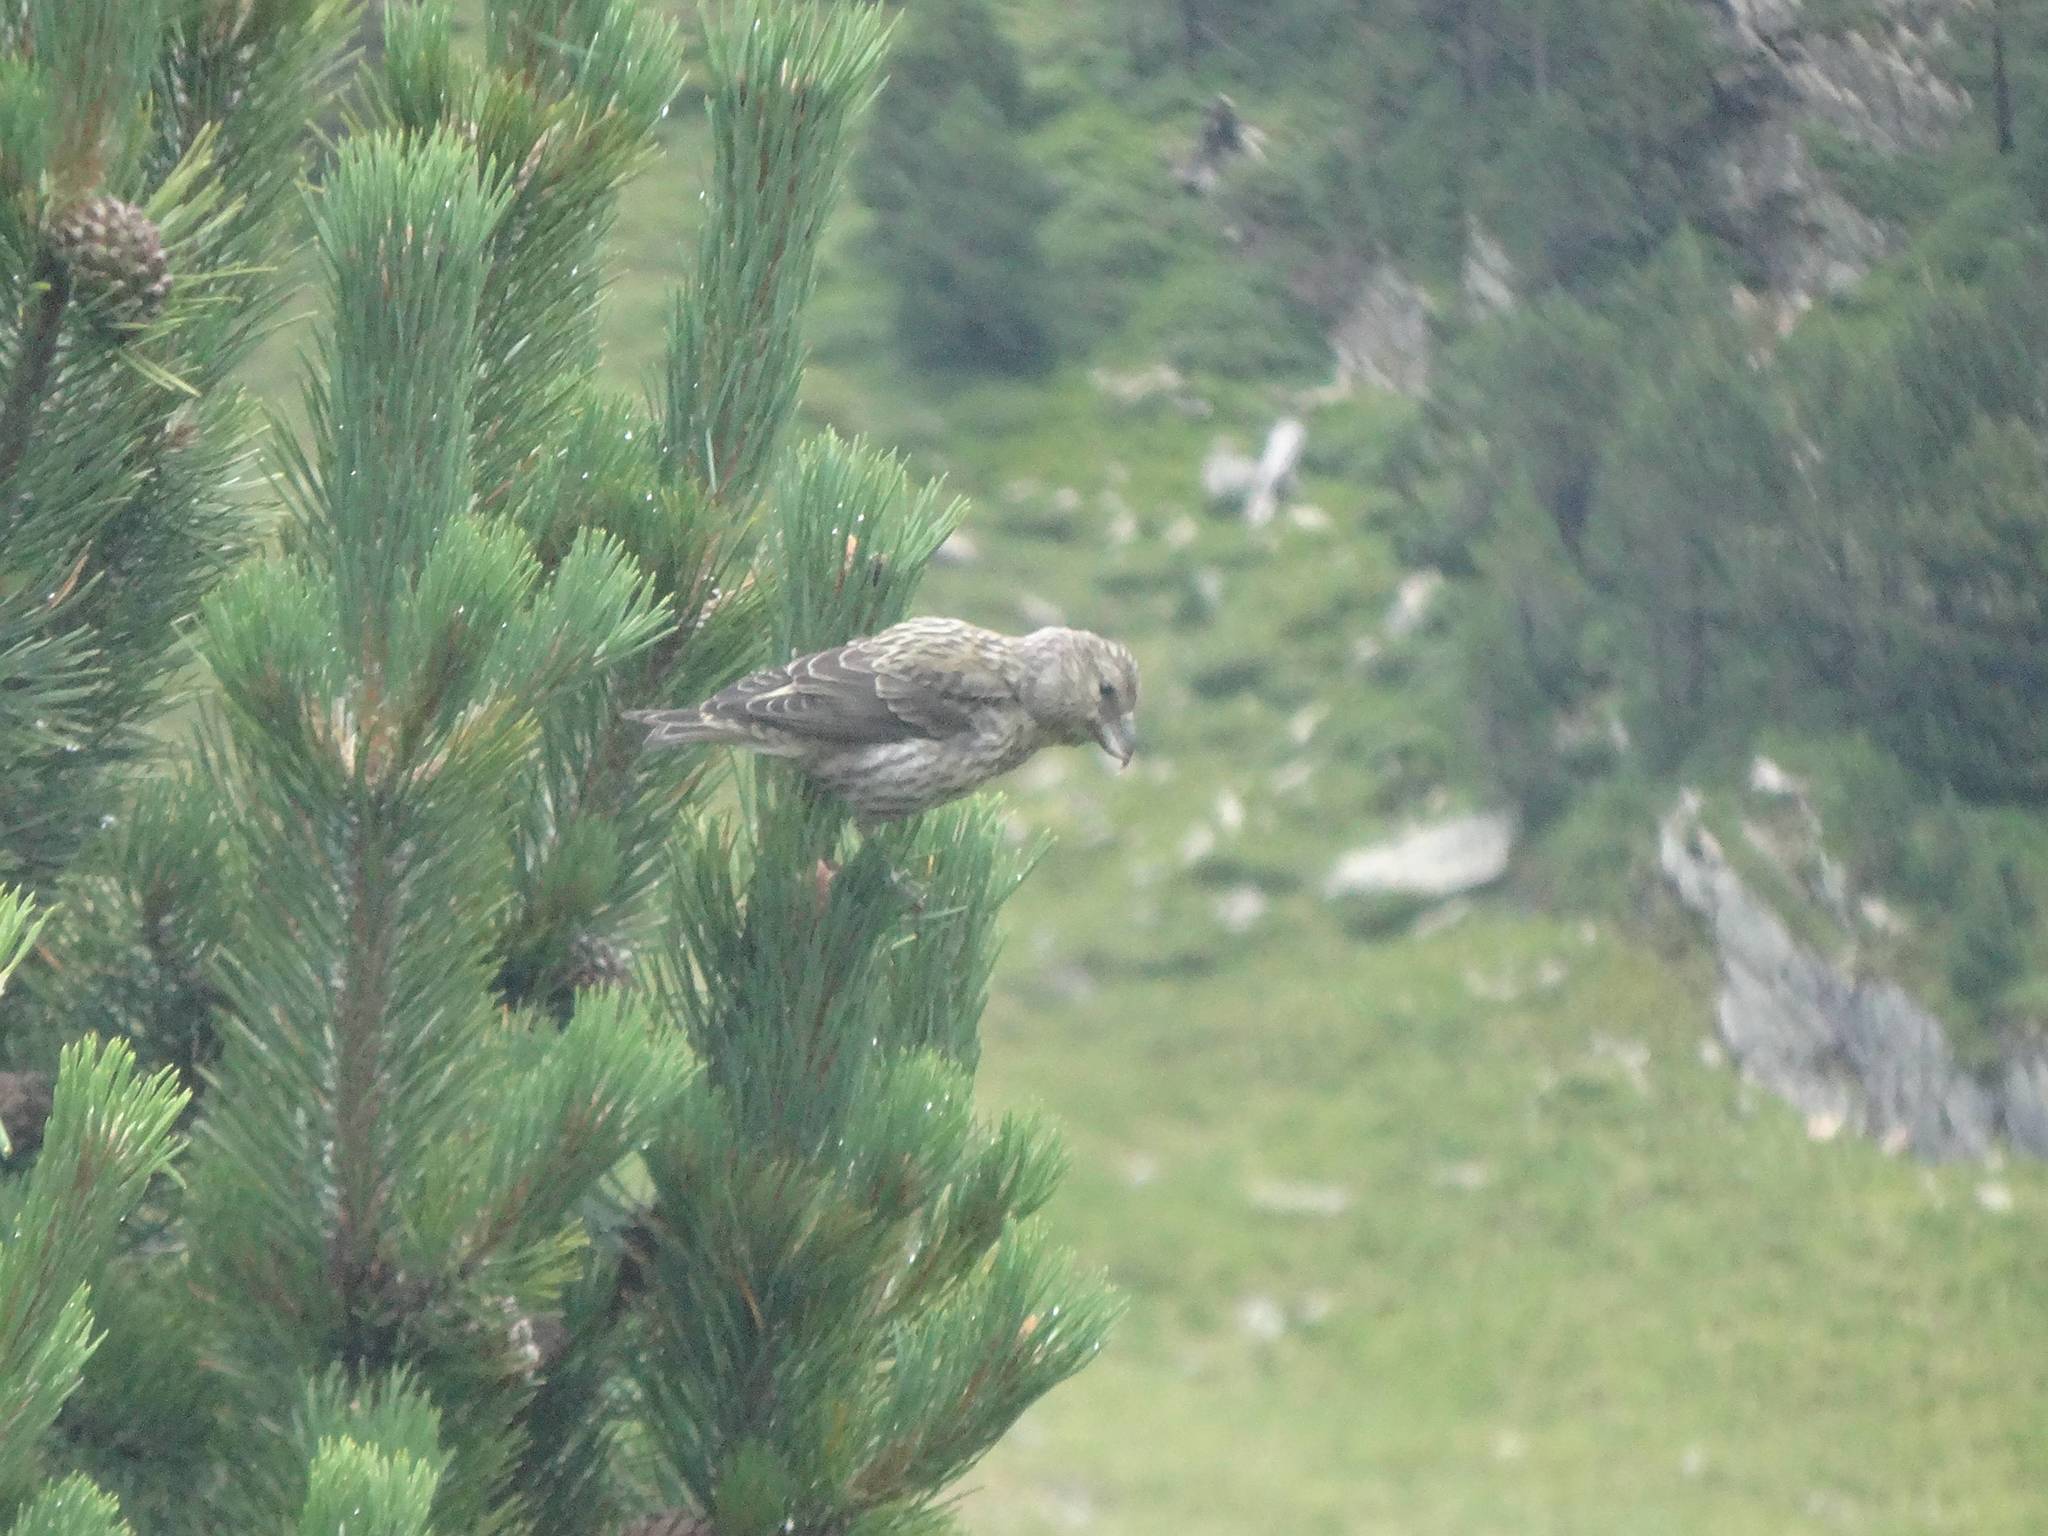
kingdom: Animalia
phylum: Chordata
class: Aves
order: Passeriformes
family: Fringillidae
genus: Loxia
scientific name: Loxia curvirostra
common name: Red crossbill
